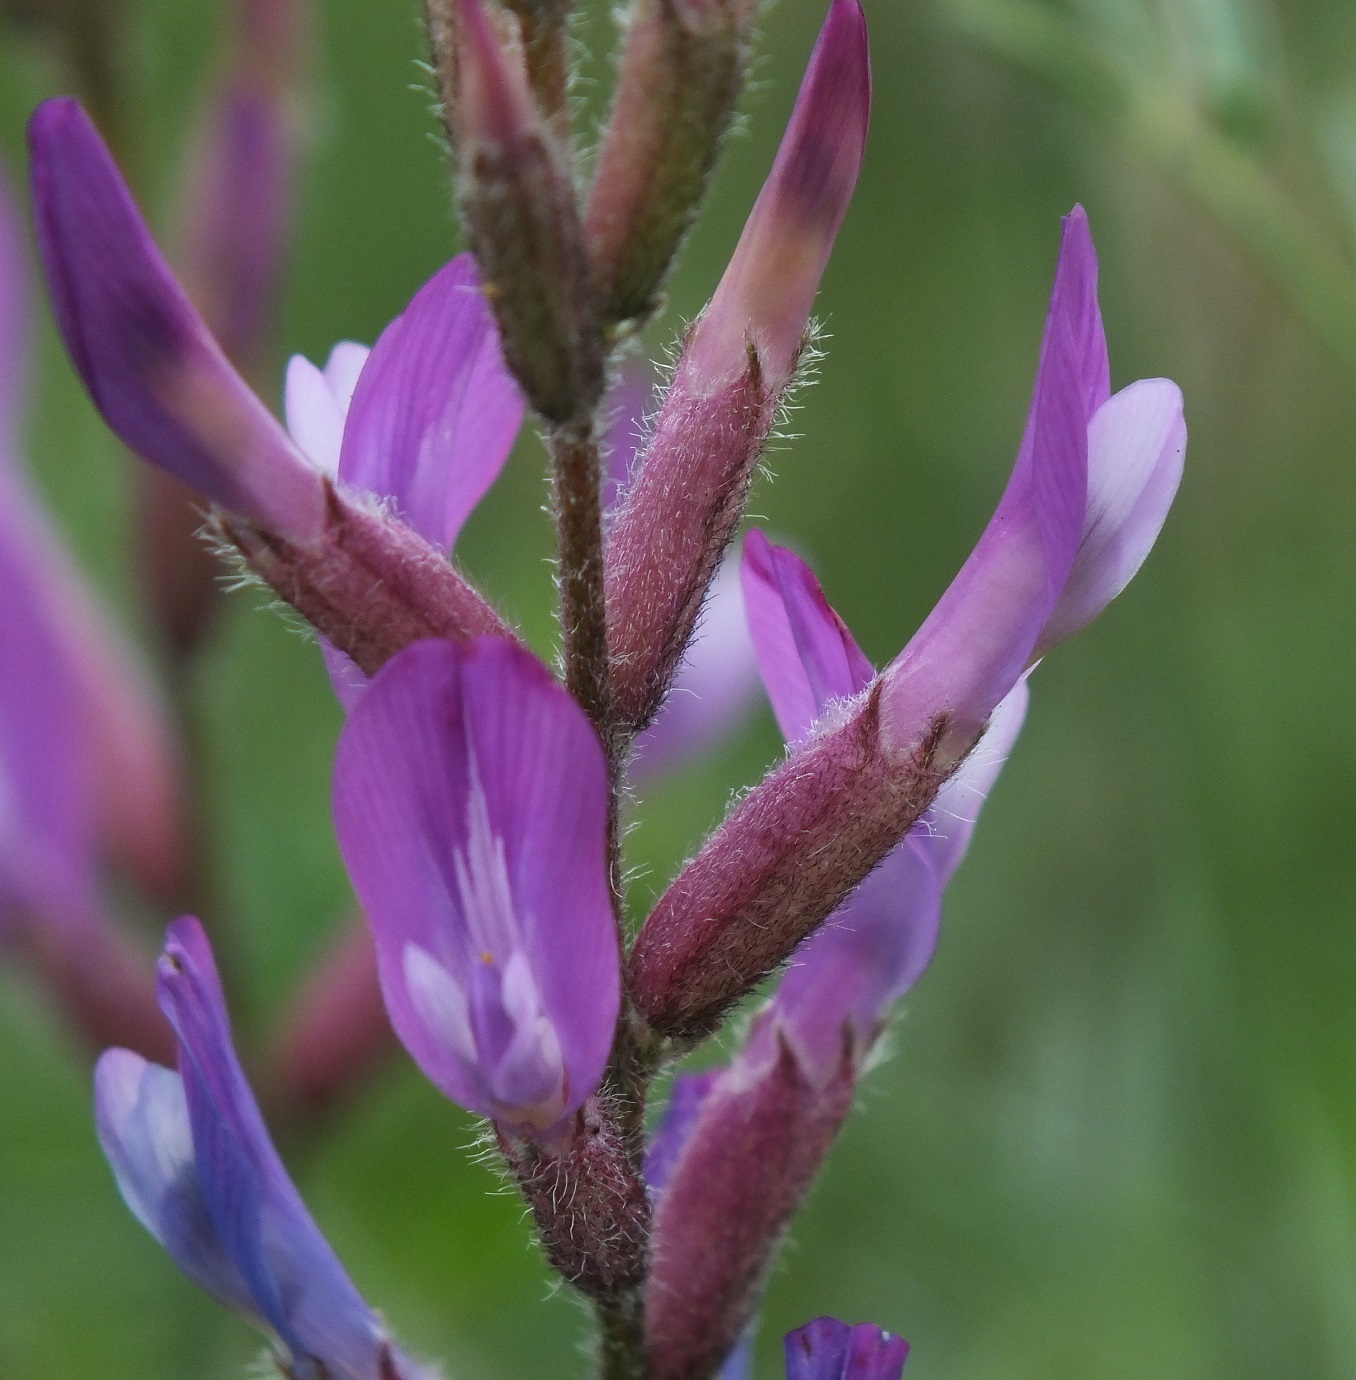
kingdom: Plantae
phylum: Tracheophyta
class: Magnoliopsida
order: Fabales
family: Fabaceae
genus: Astragalus
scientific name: Astragalus varius
